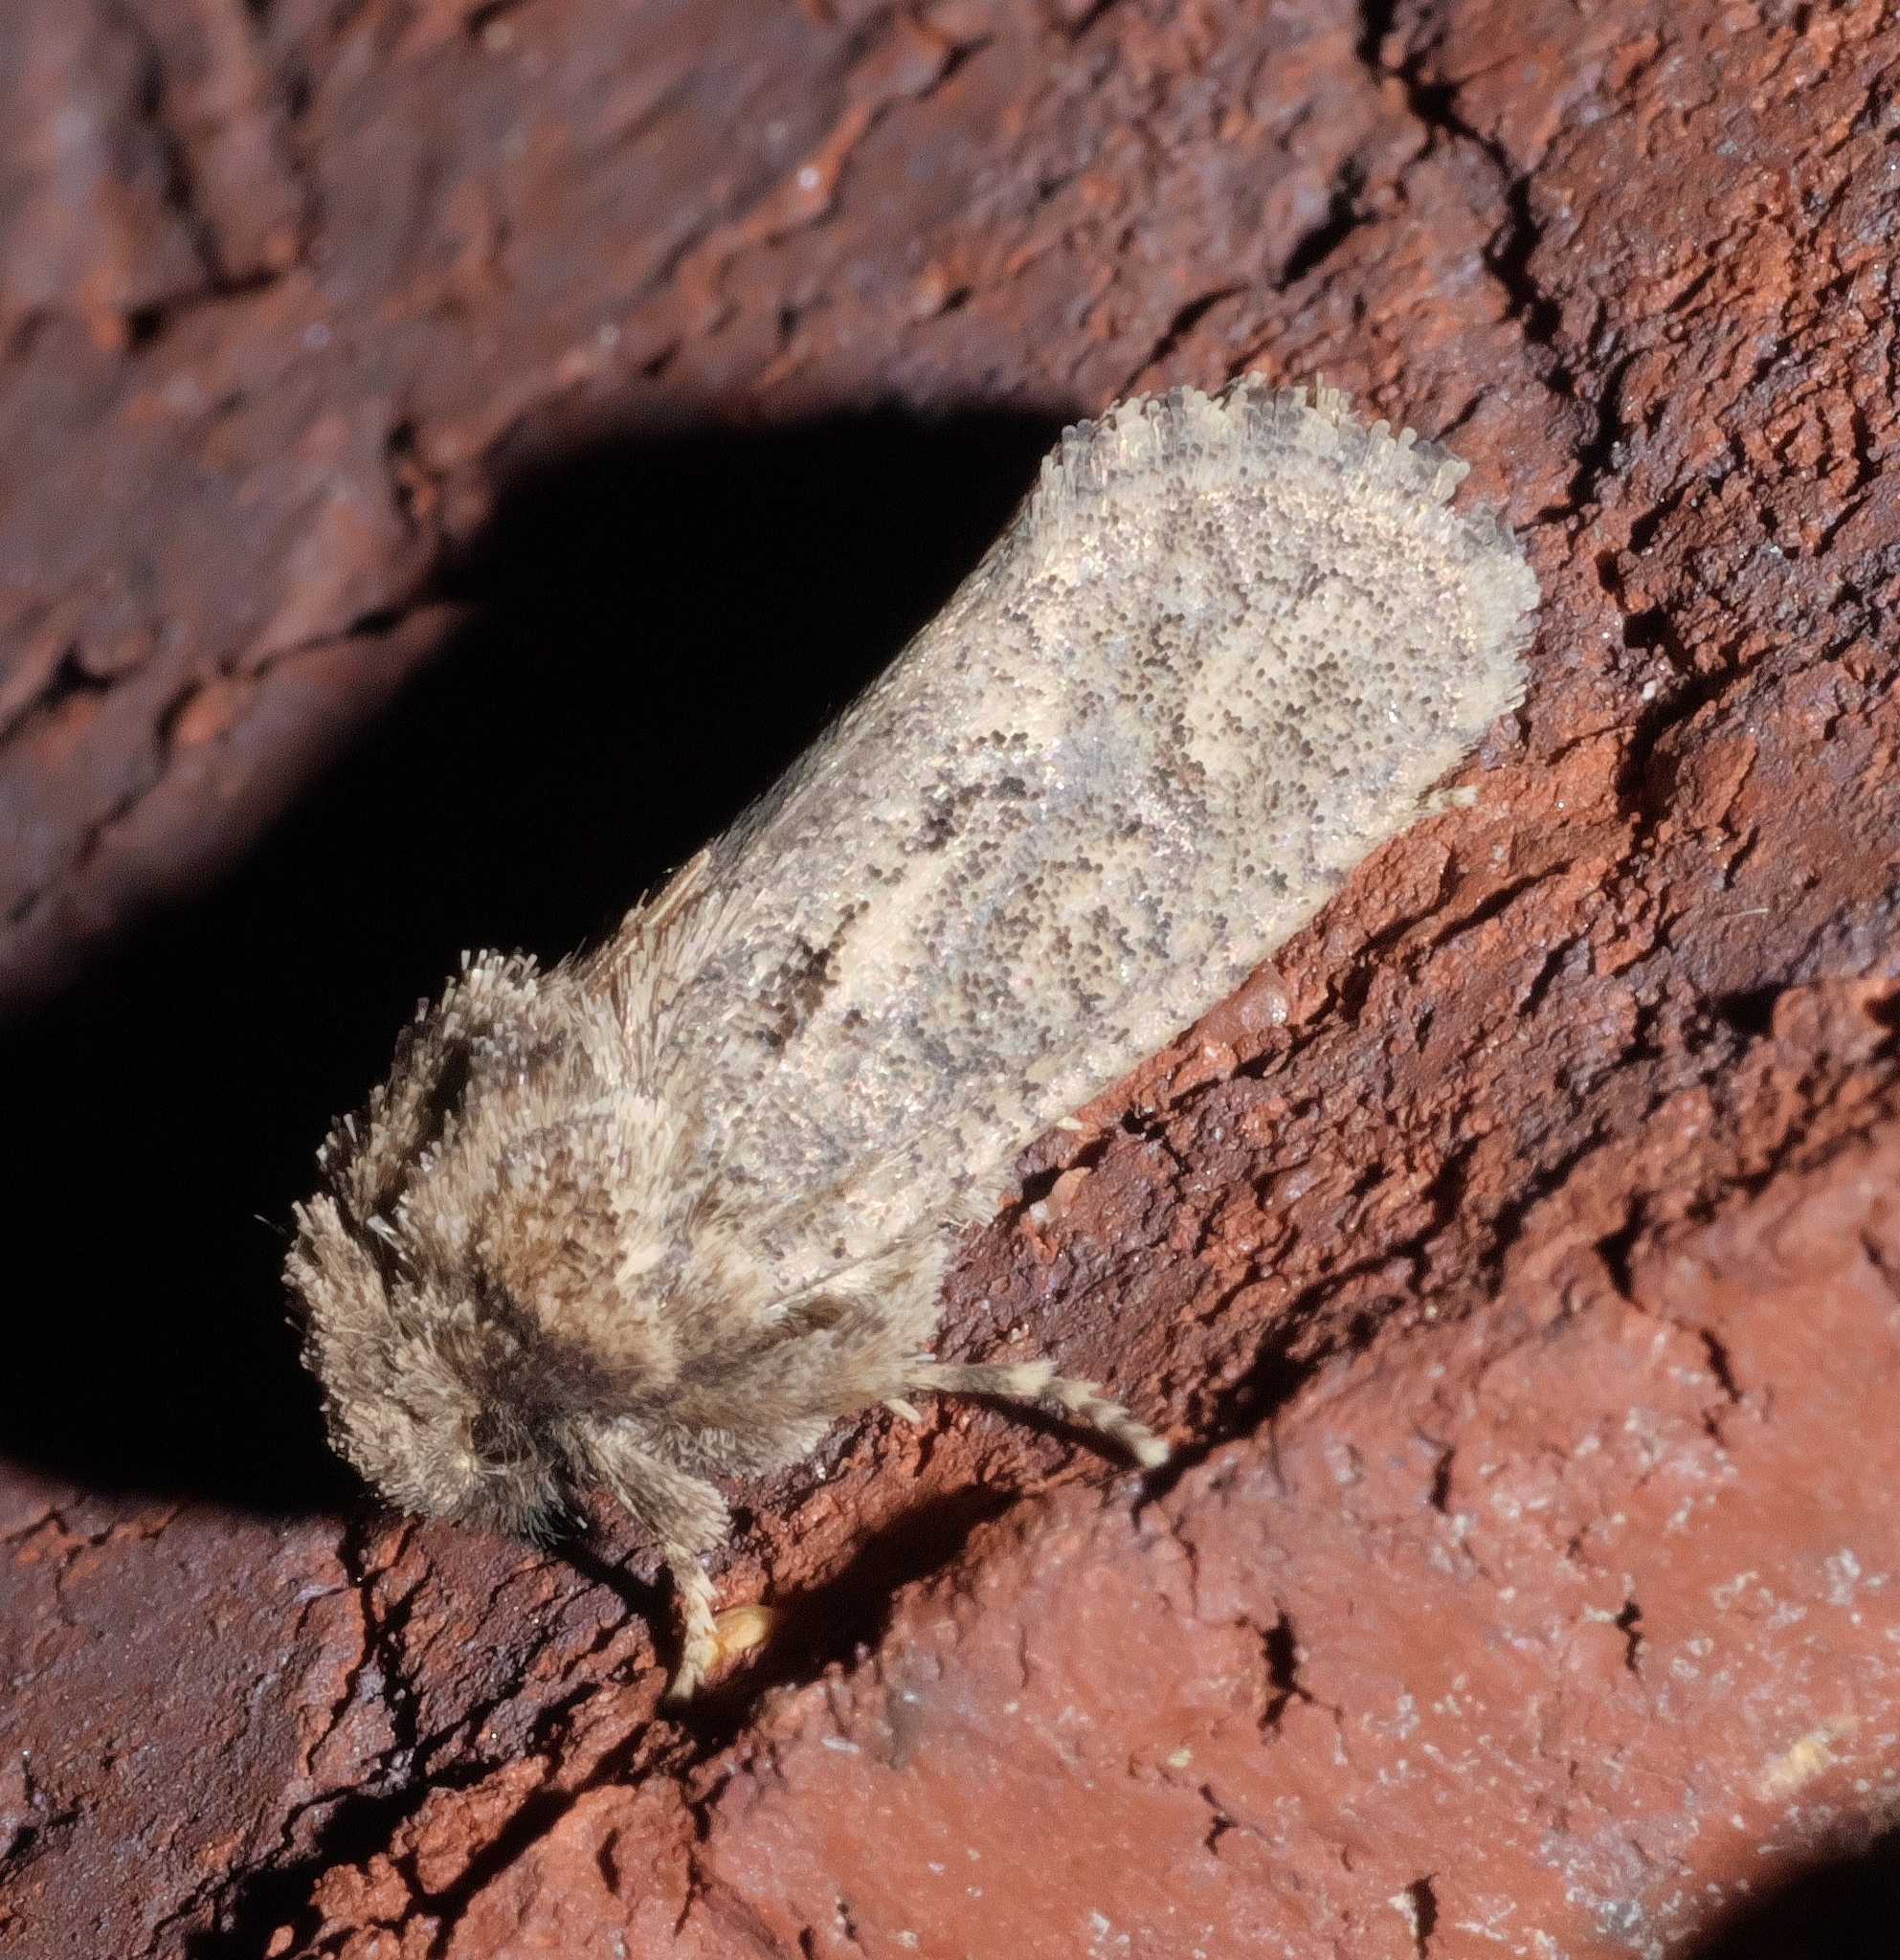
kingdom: Animalia
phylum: Arthropoda
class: Insecta
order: Lepidoptera
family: Tineidae
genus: Acrolophus
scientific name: Acrolophus arcanella
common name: Arcane grass tubeworm moth
